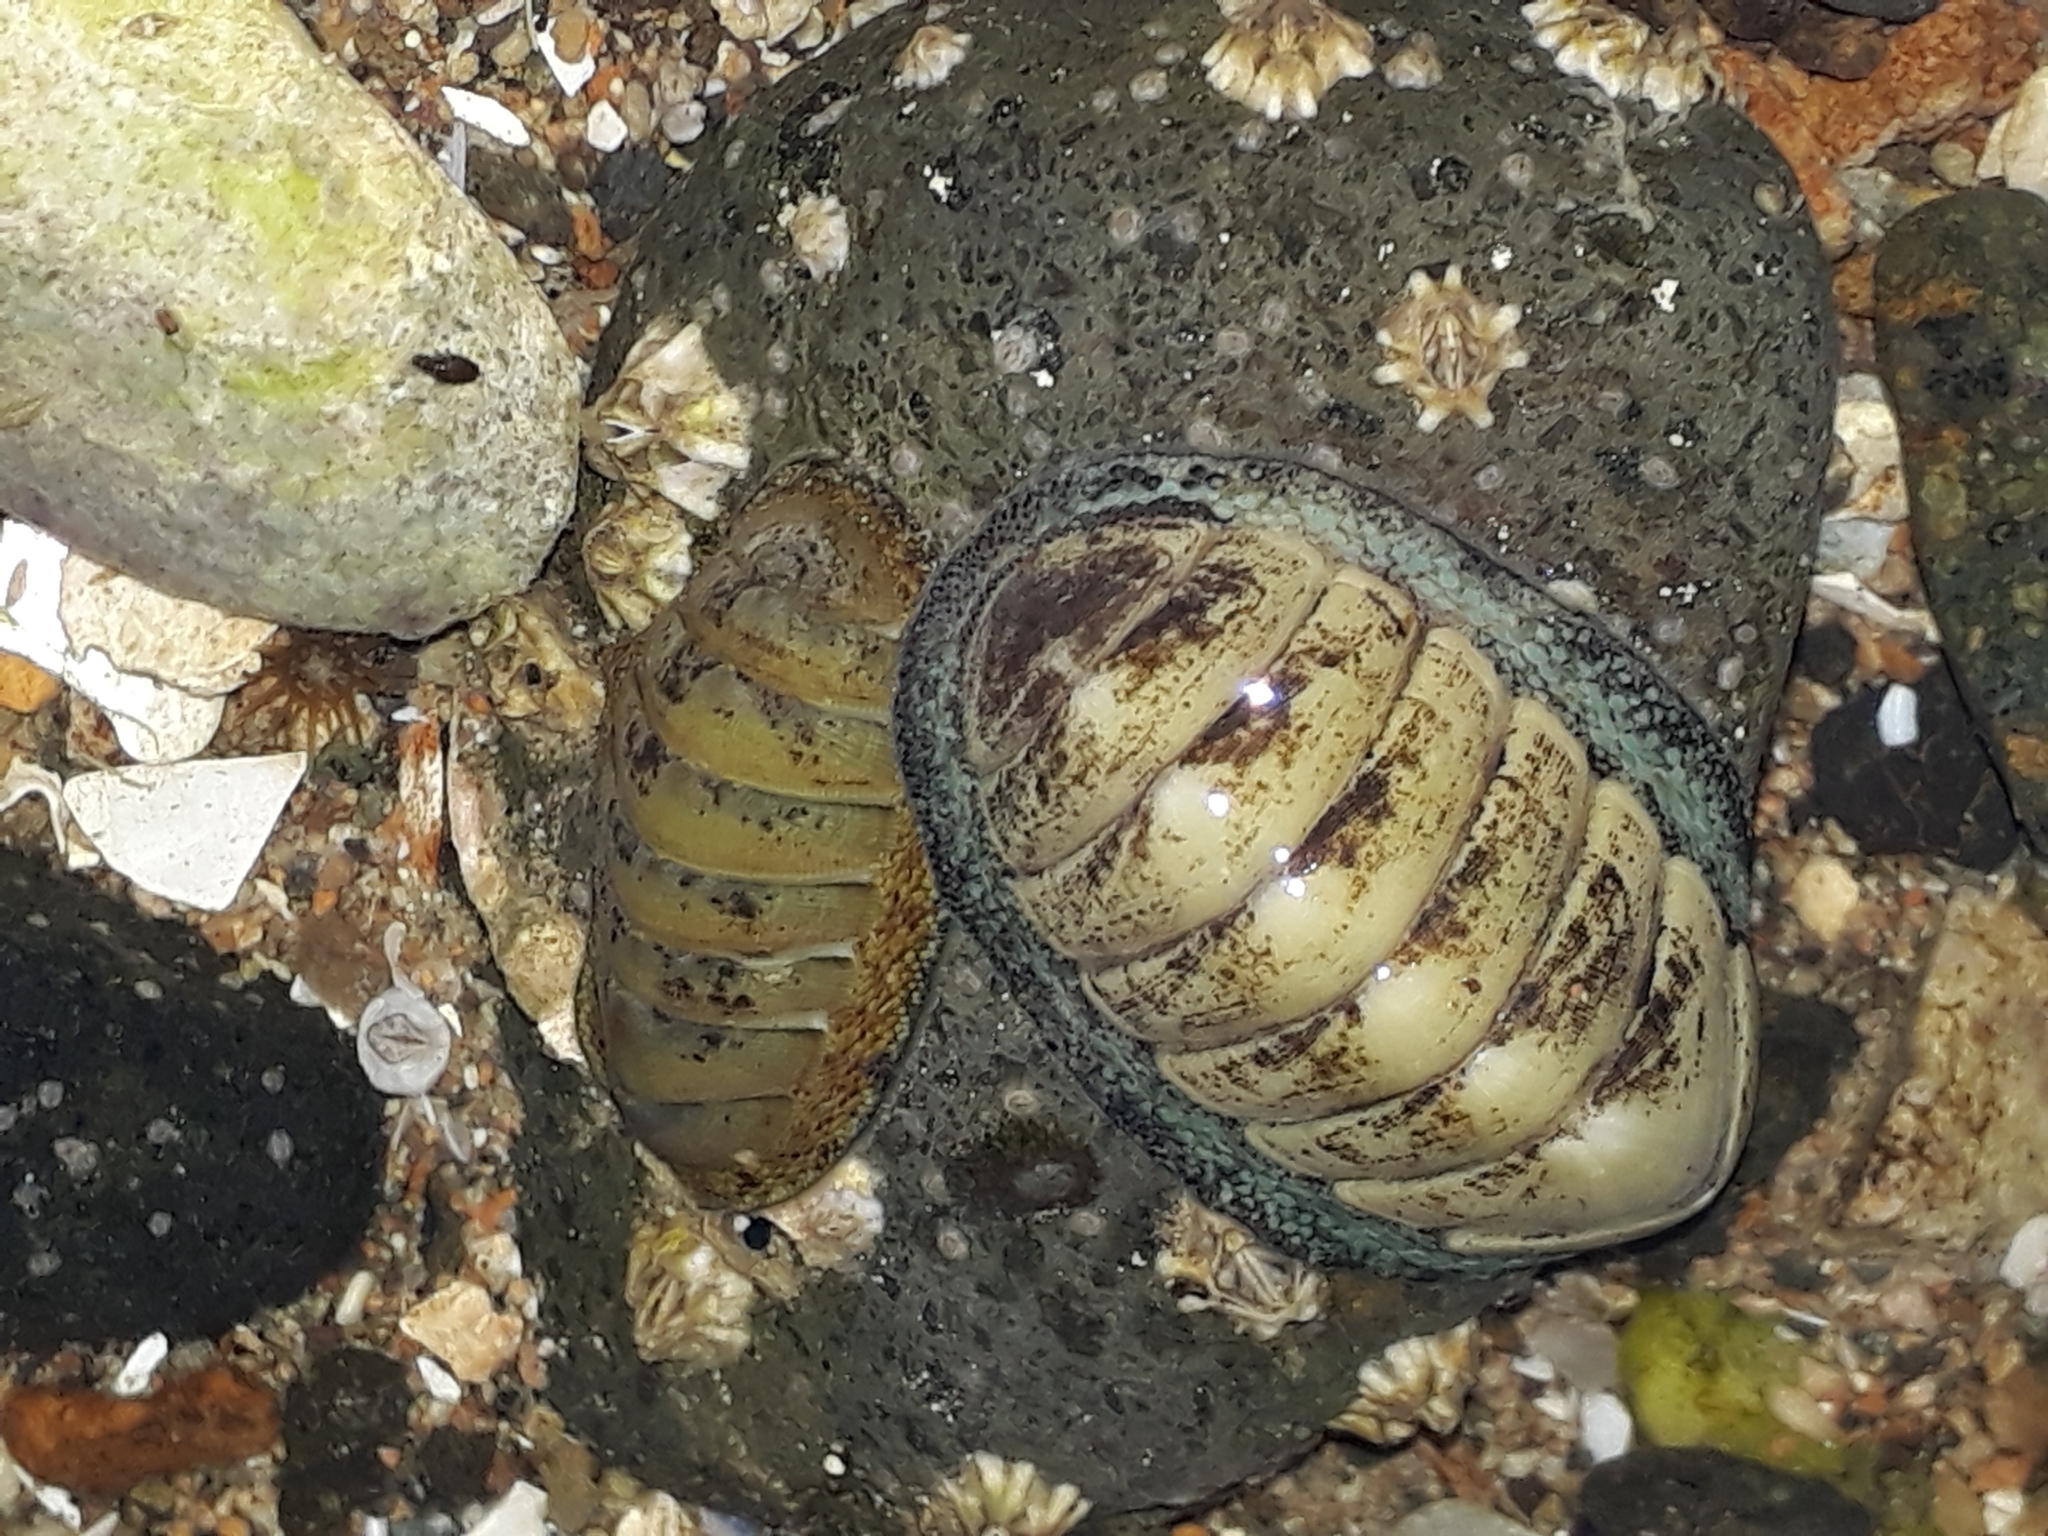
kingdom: Animalia
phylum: Mollusca
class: Polyplacophora
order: Chitonida
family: Chitonidae
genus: Chiton
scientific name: Chiton glaucus
